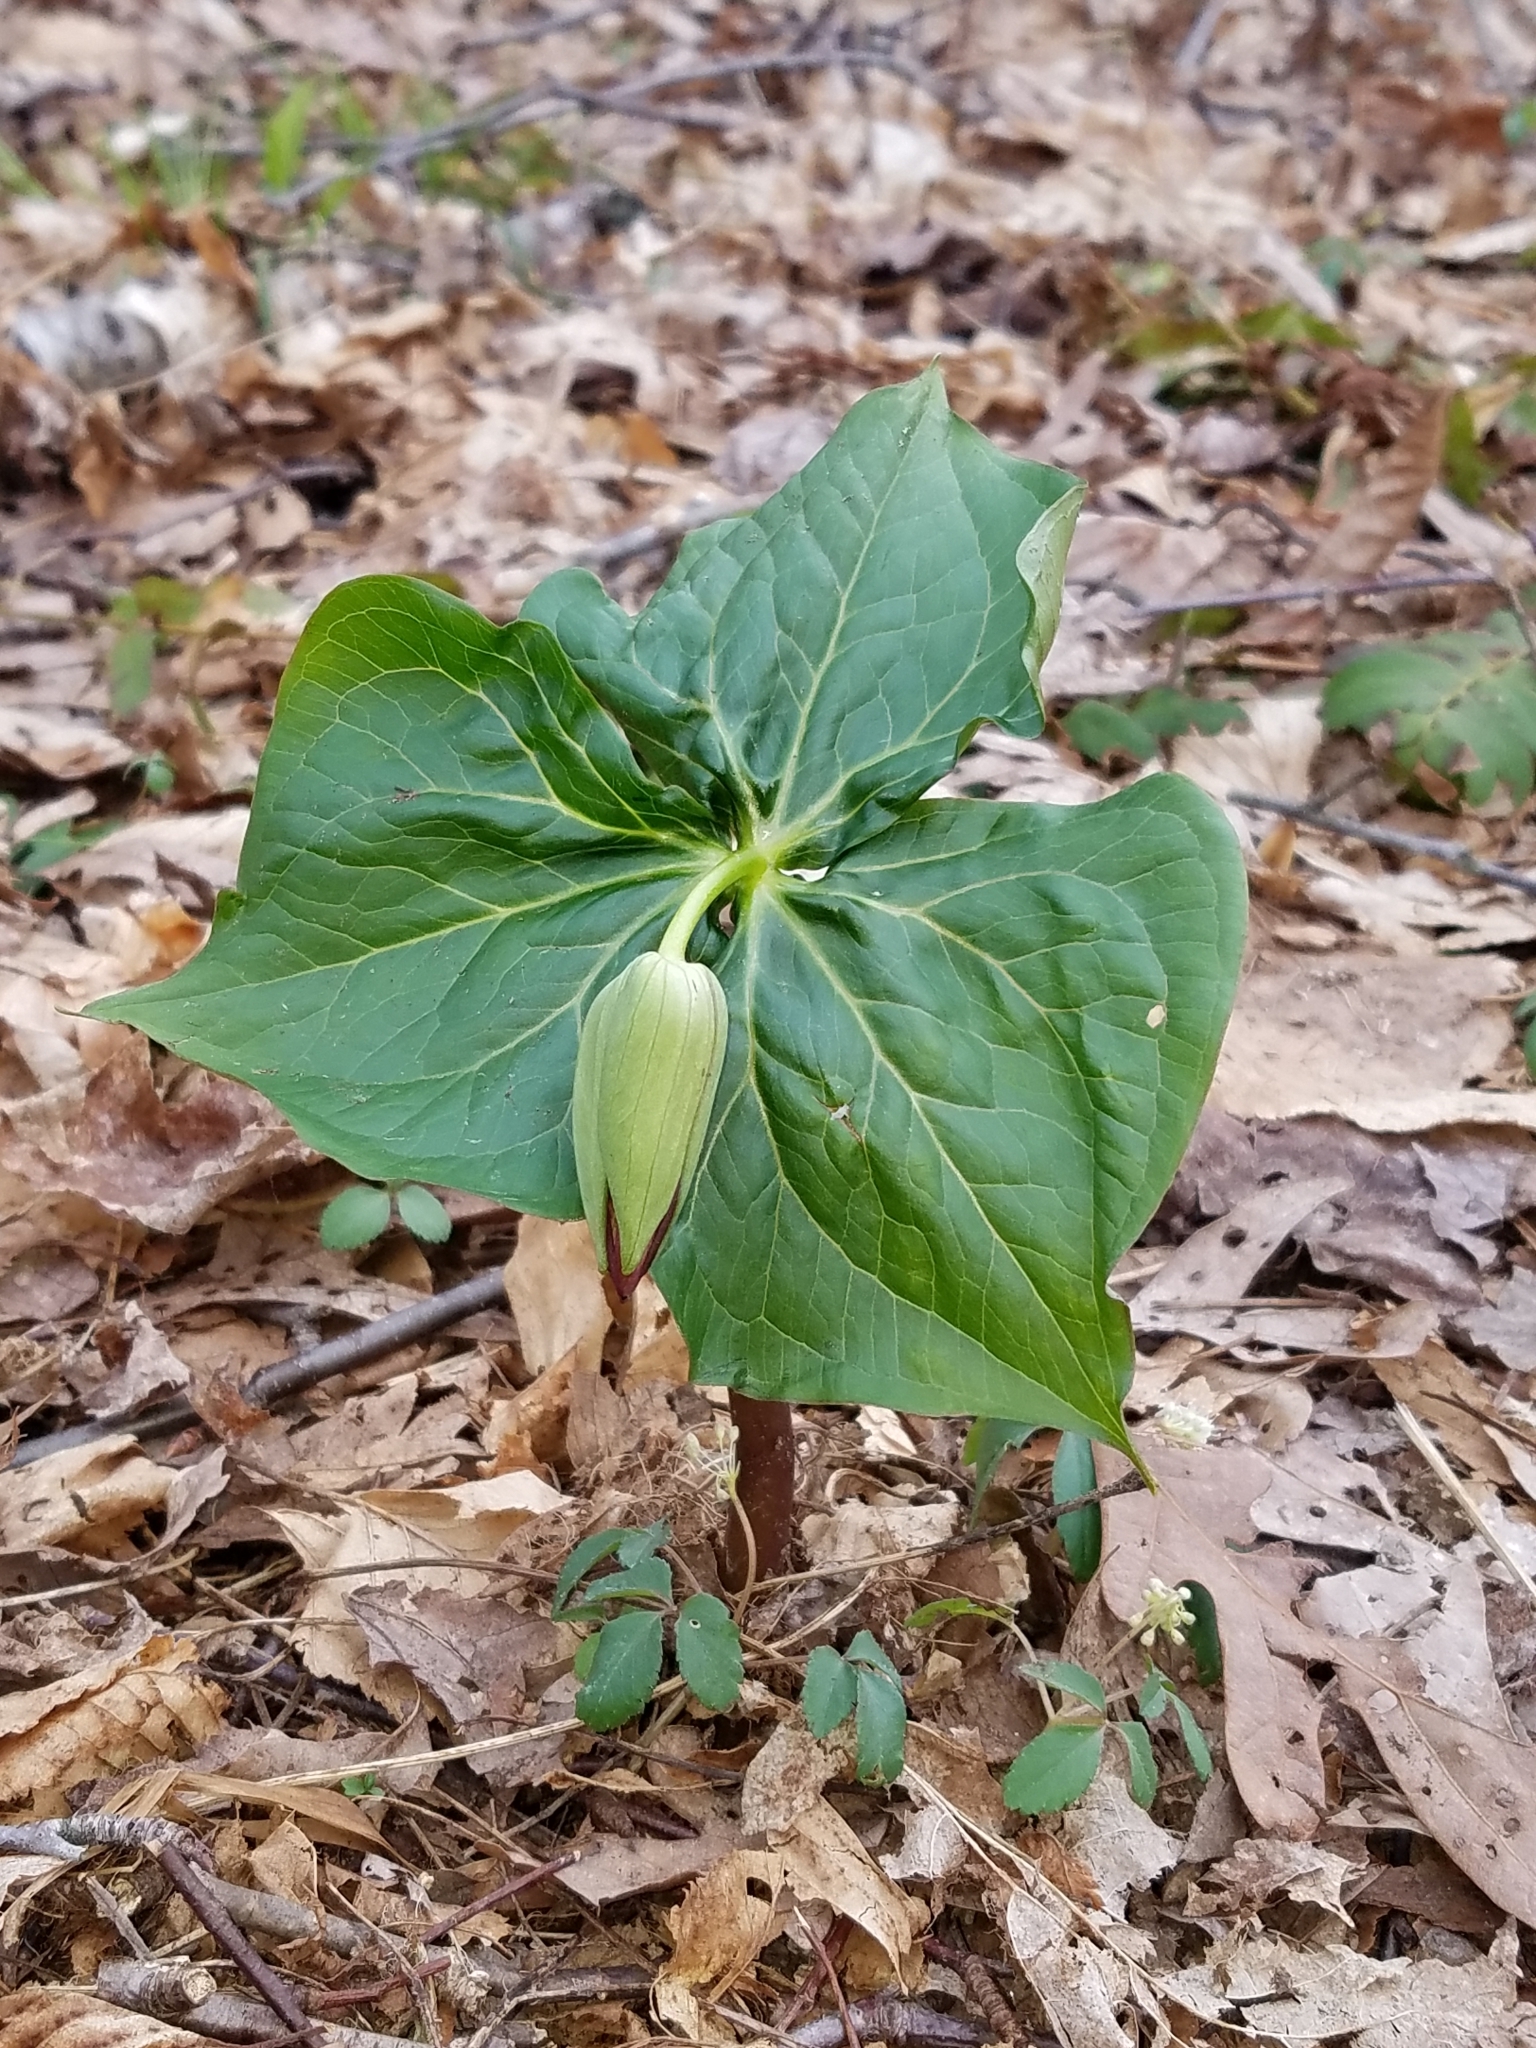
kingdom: Plantae
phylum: Tracheophyta
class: Liliopsida
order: Liliales
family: Melanthiaceae
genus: Trillium
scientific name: Trillium erectum
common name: Purple trillium
